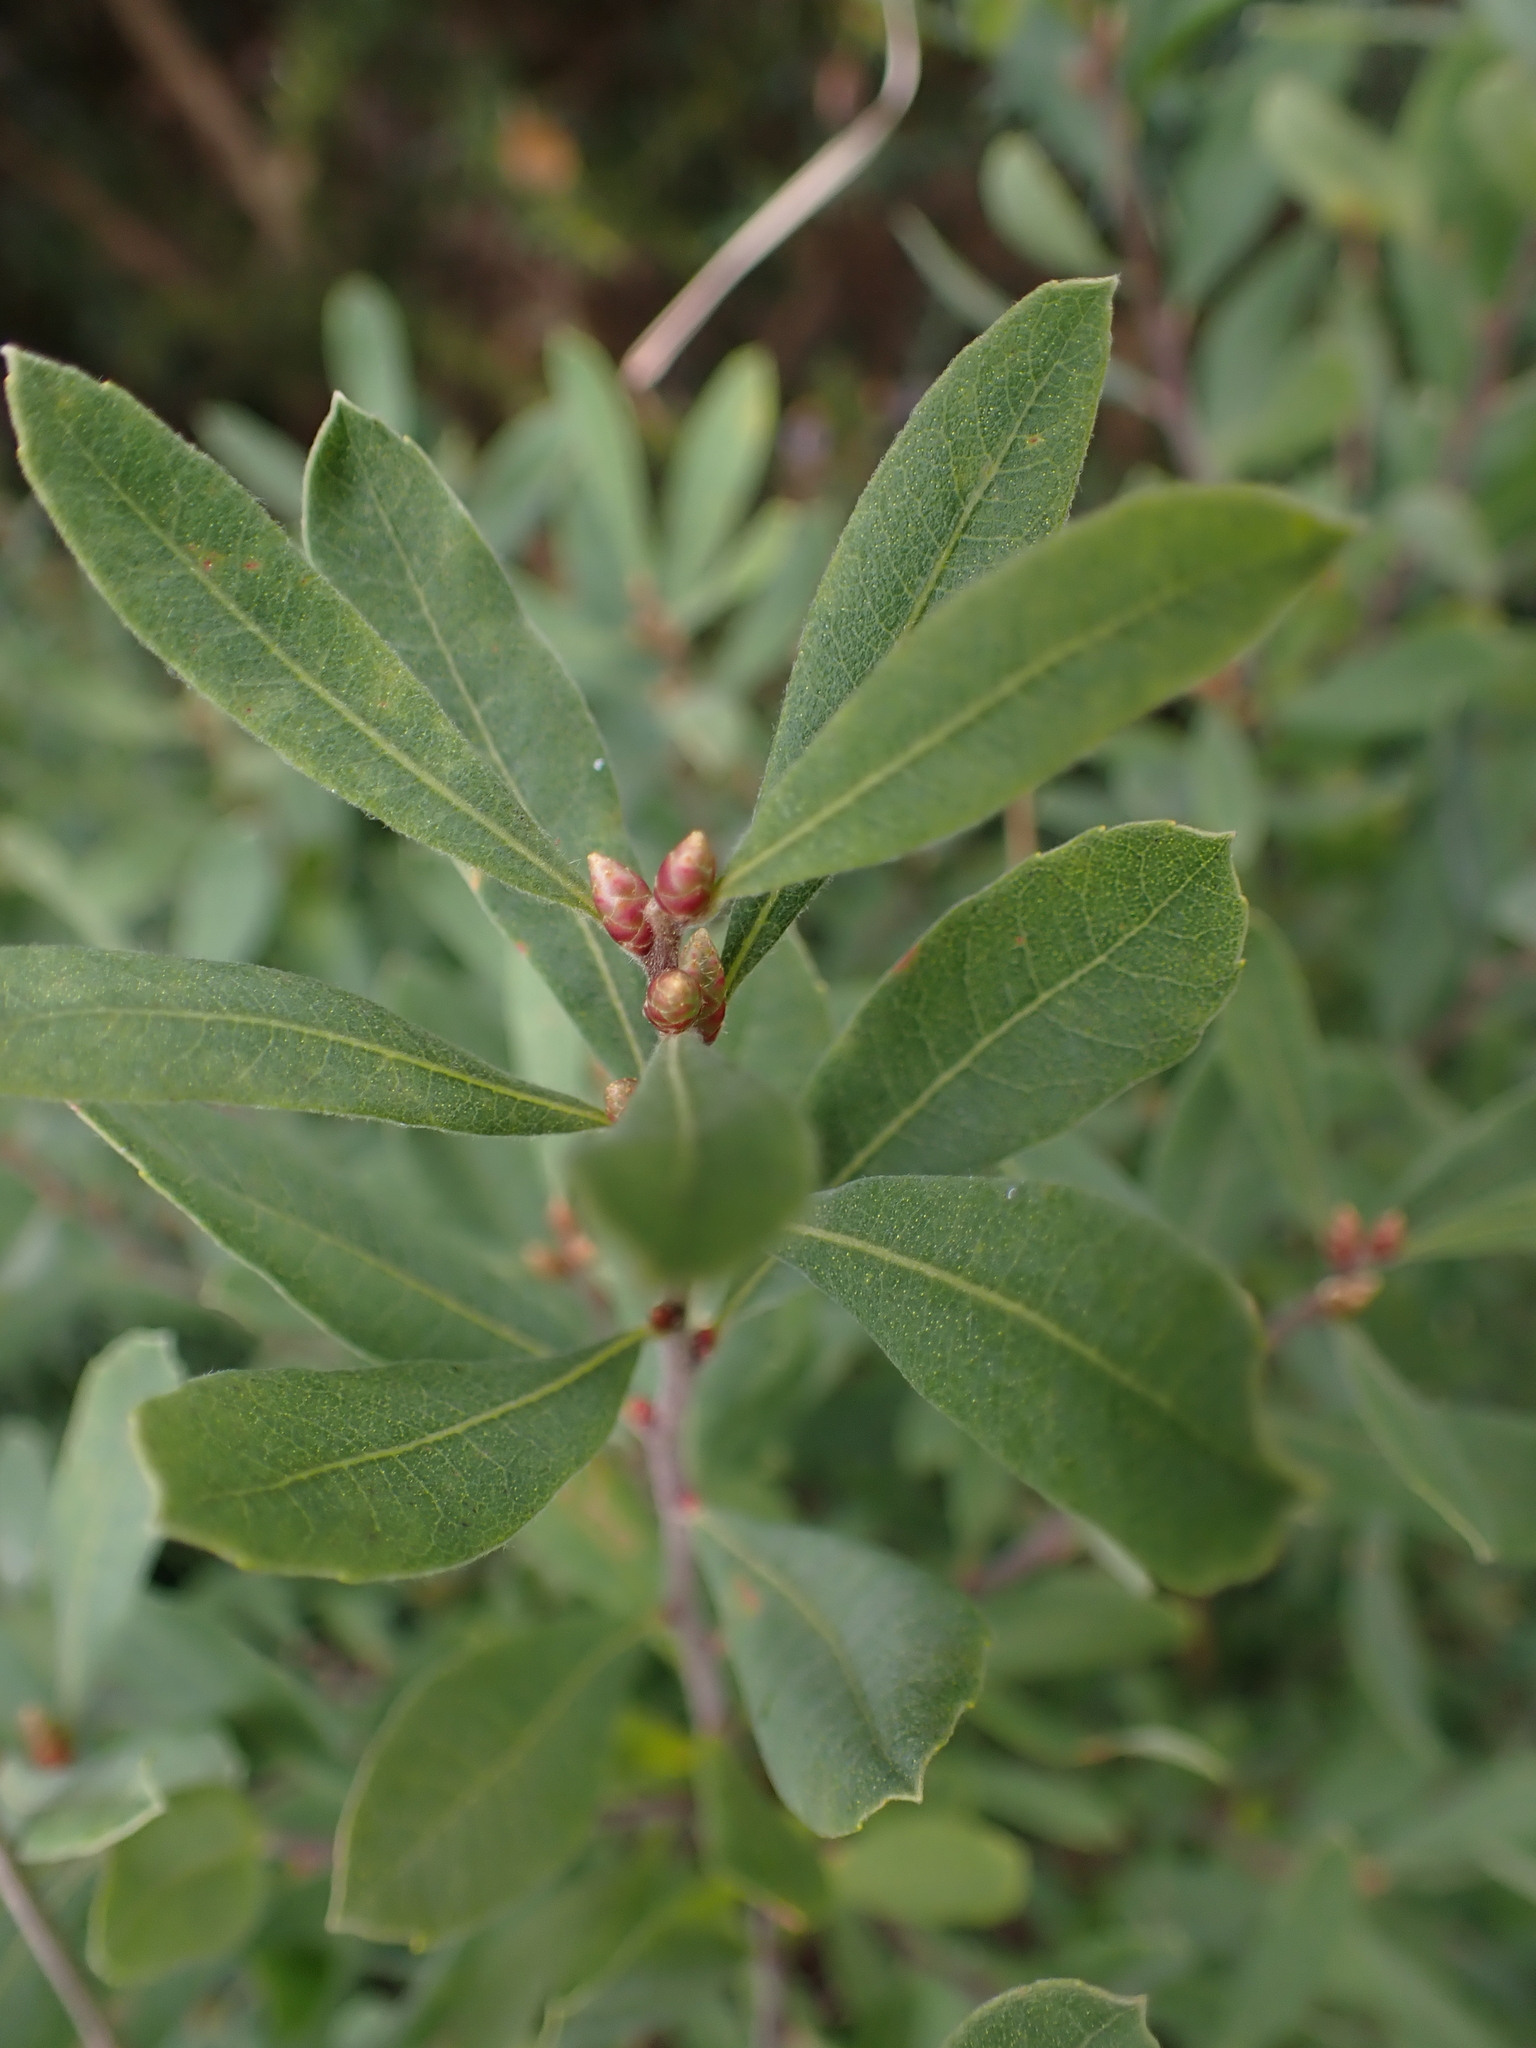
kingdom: Plantae
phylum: Tracheophyta
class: Magnoliopsida
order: Fagales
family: Myricaceae
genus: Myrica
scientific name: Myrica gale
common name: Sweet gale
